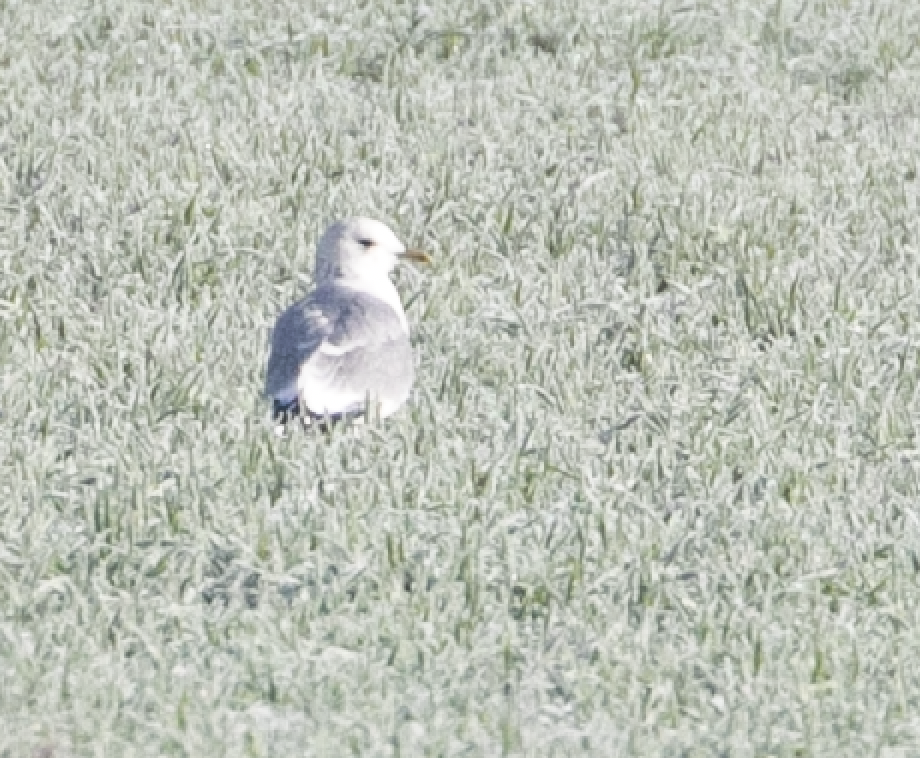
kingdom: Animalia
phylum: Chordata
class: Aves
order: Charadriiformes
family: Laridae
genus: Larus
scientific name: Larus canus
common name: Mew gull
